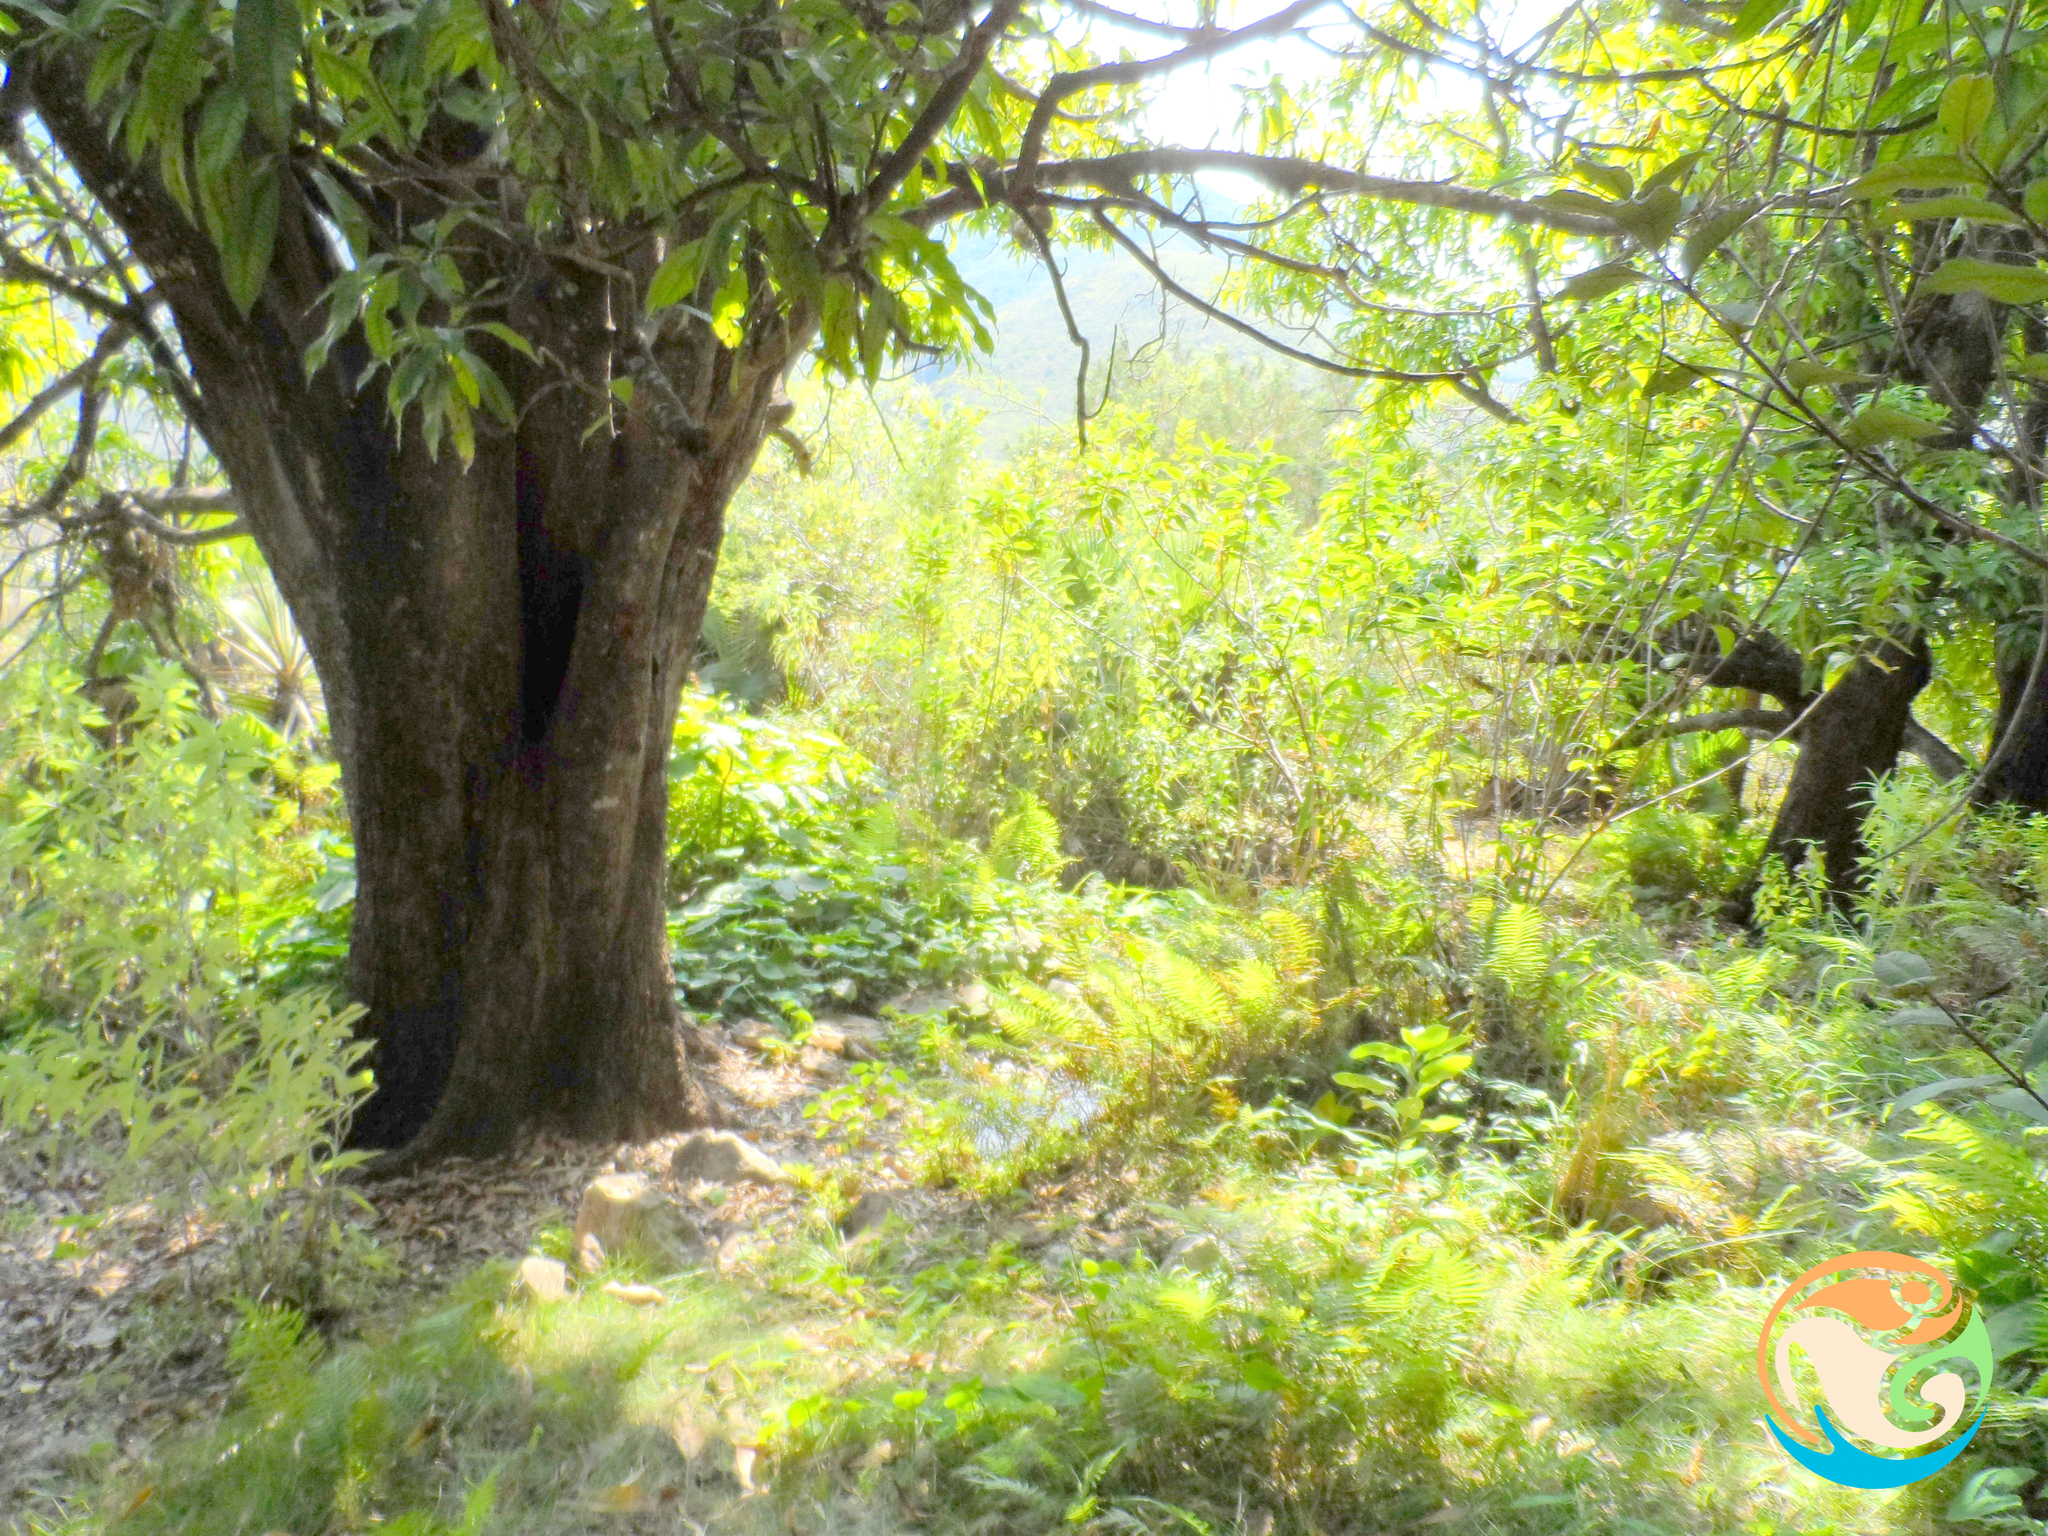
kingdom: Plantae
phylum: Tracheophyta
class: Magnoliopsida
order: Sapindales
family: Anacardiaceae
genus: Mangifera
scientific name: Mangifera indica
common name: Mango
